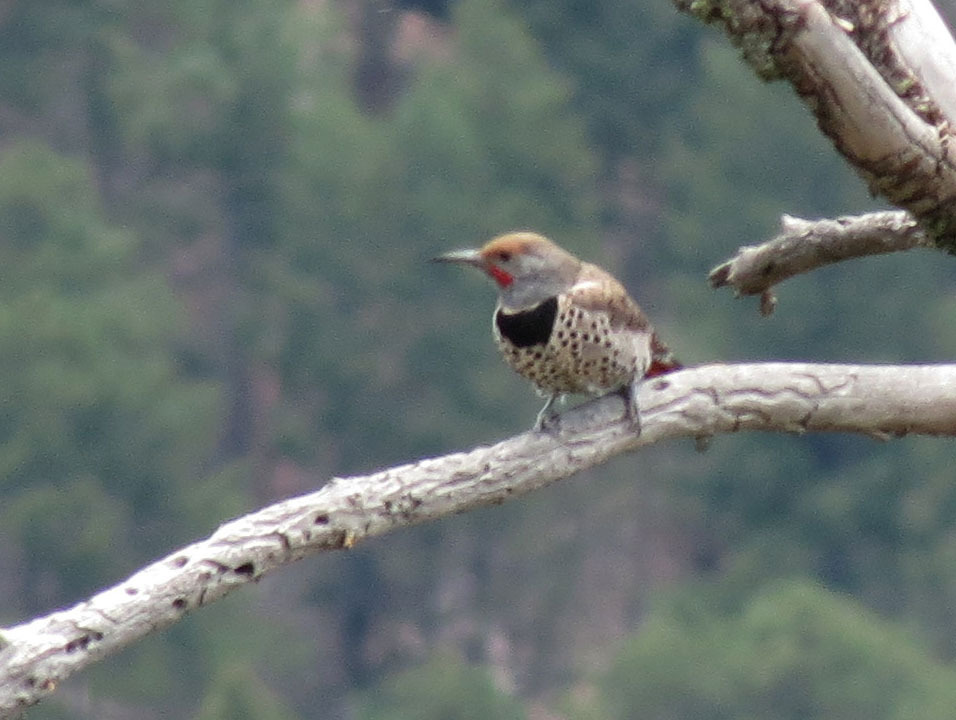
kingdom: Animalia
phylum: Chordata
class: Aves
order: Piciformes
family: Picidae
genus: Colaptes
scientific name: Colaptes auratus
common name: Northern flicker
